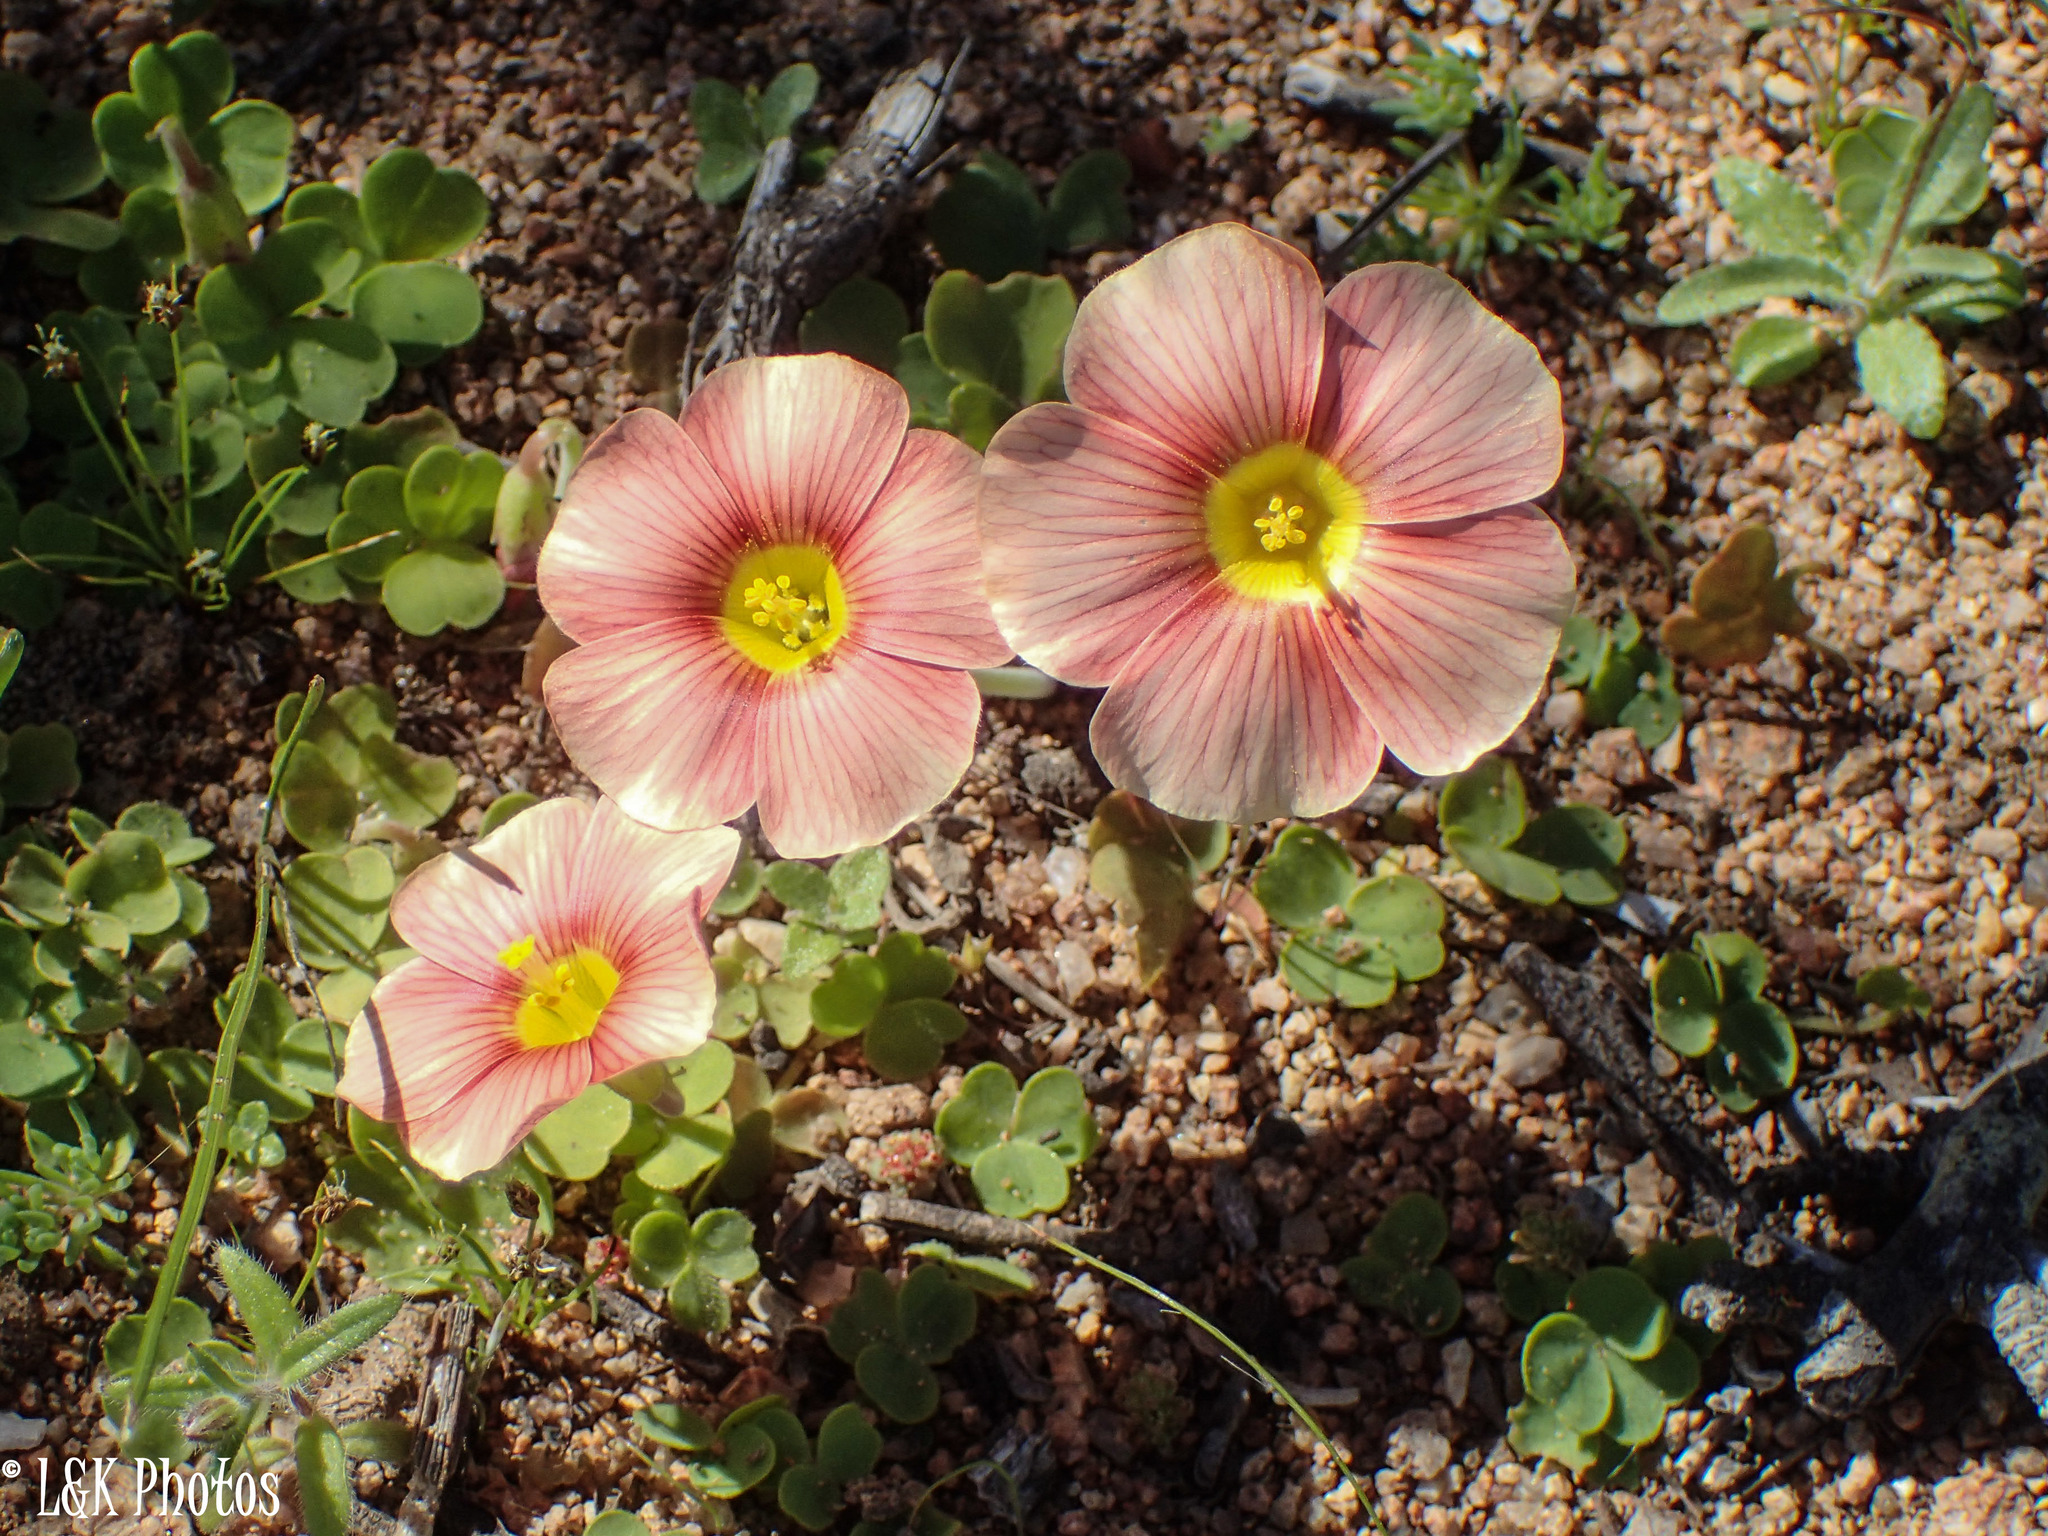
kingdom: Plantae
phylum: Tracheophyta
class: Magnoliopsida
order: Oxalidales
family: Oxalidaceae
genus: Oxalis
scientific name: Oxalis obtusa
